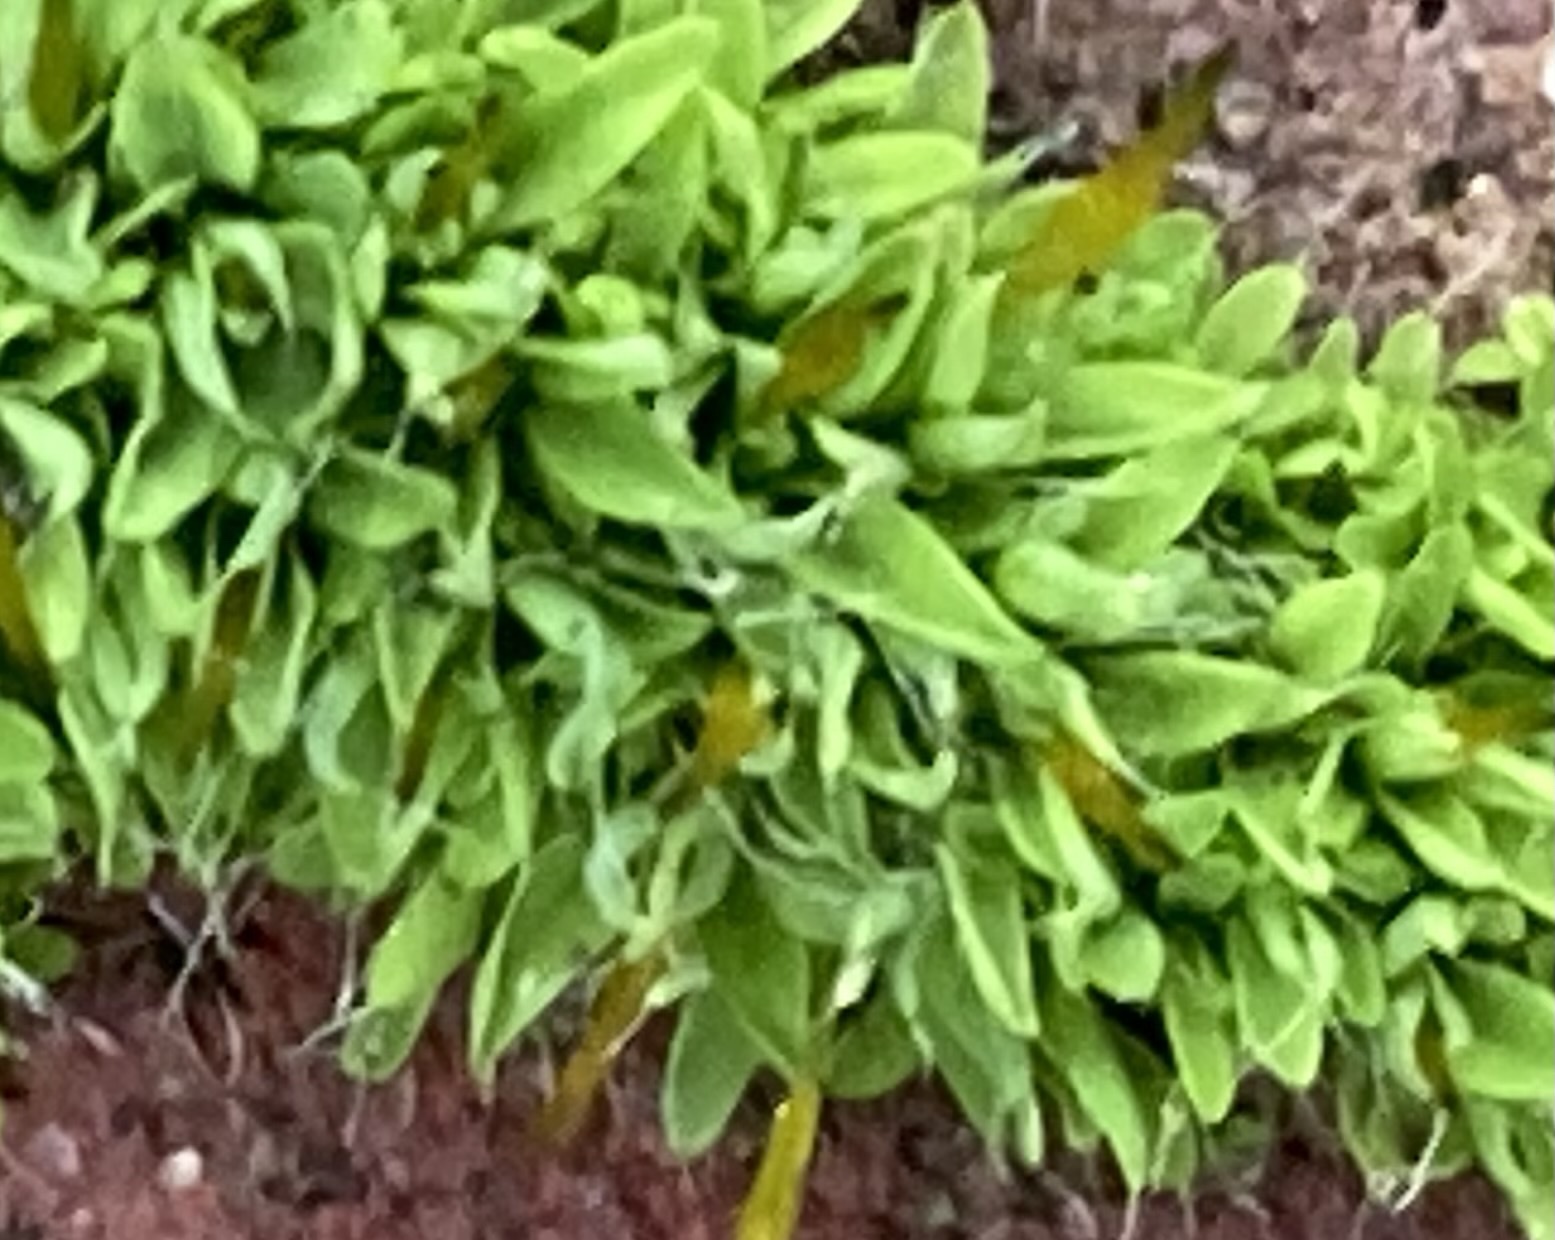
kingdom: Plantae
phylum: Bryophyta
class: Bryopsida
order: Pottiales
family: Pottiaceae
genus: Tortula
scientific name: Tortula muralis
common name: Wall screw-moss
